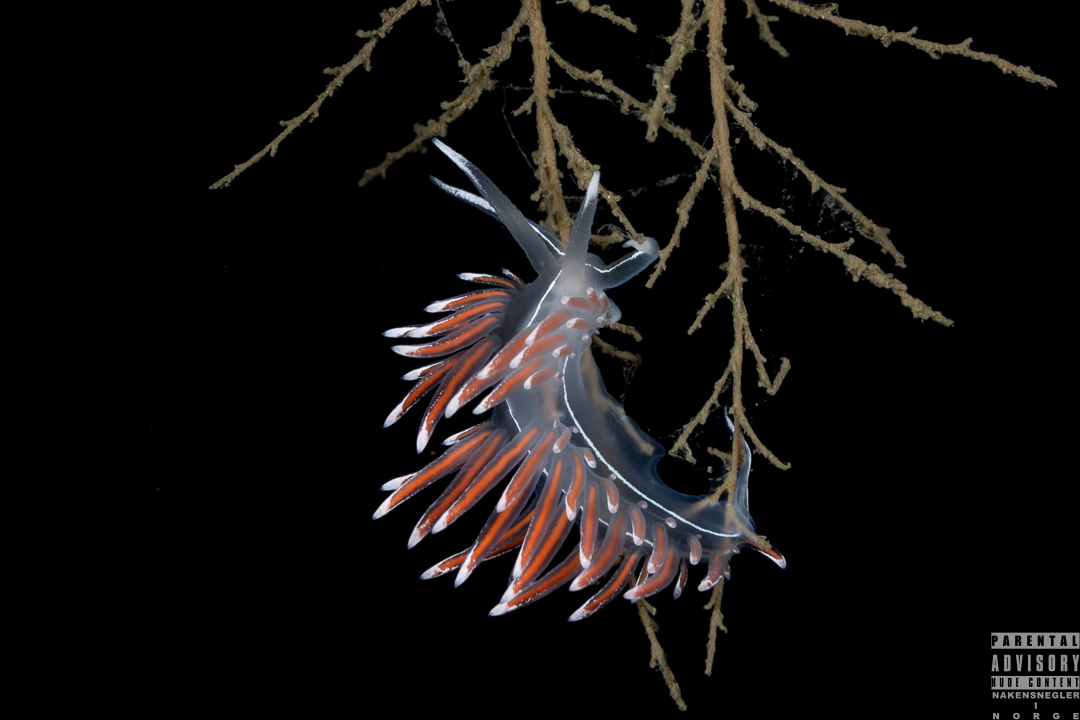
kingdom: Animalia
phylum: Mollusca
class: Gastropoda
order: Nudibranchia
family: Coryphellidae
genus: Coryphella
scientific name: Coryphella lineata
